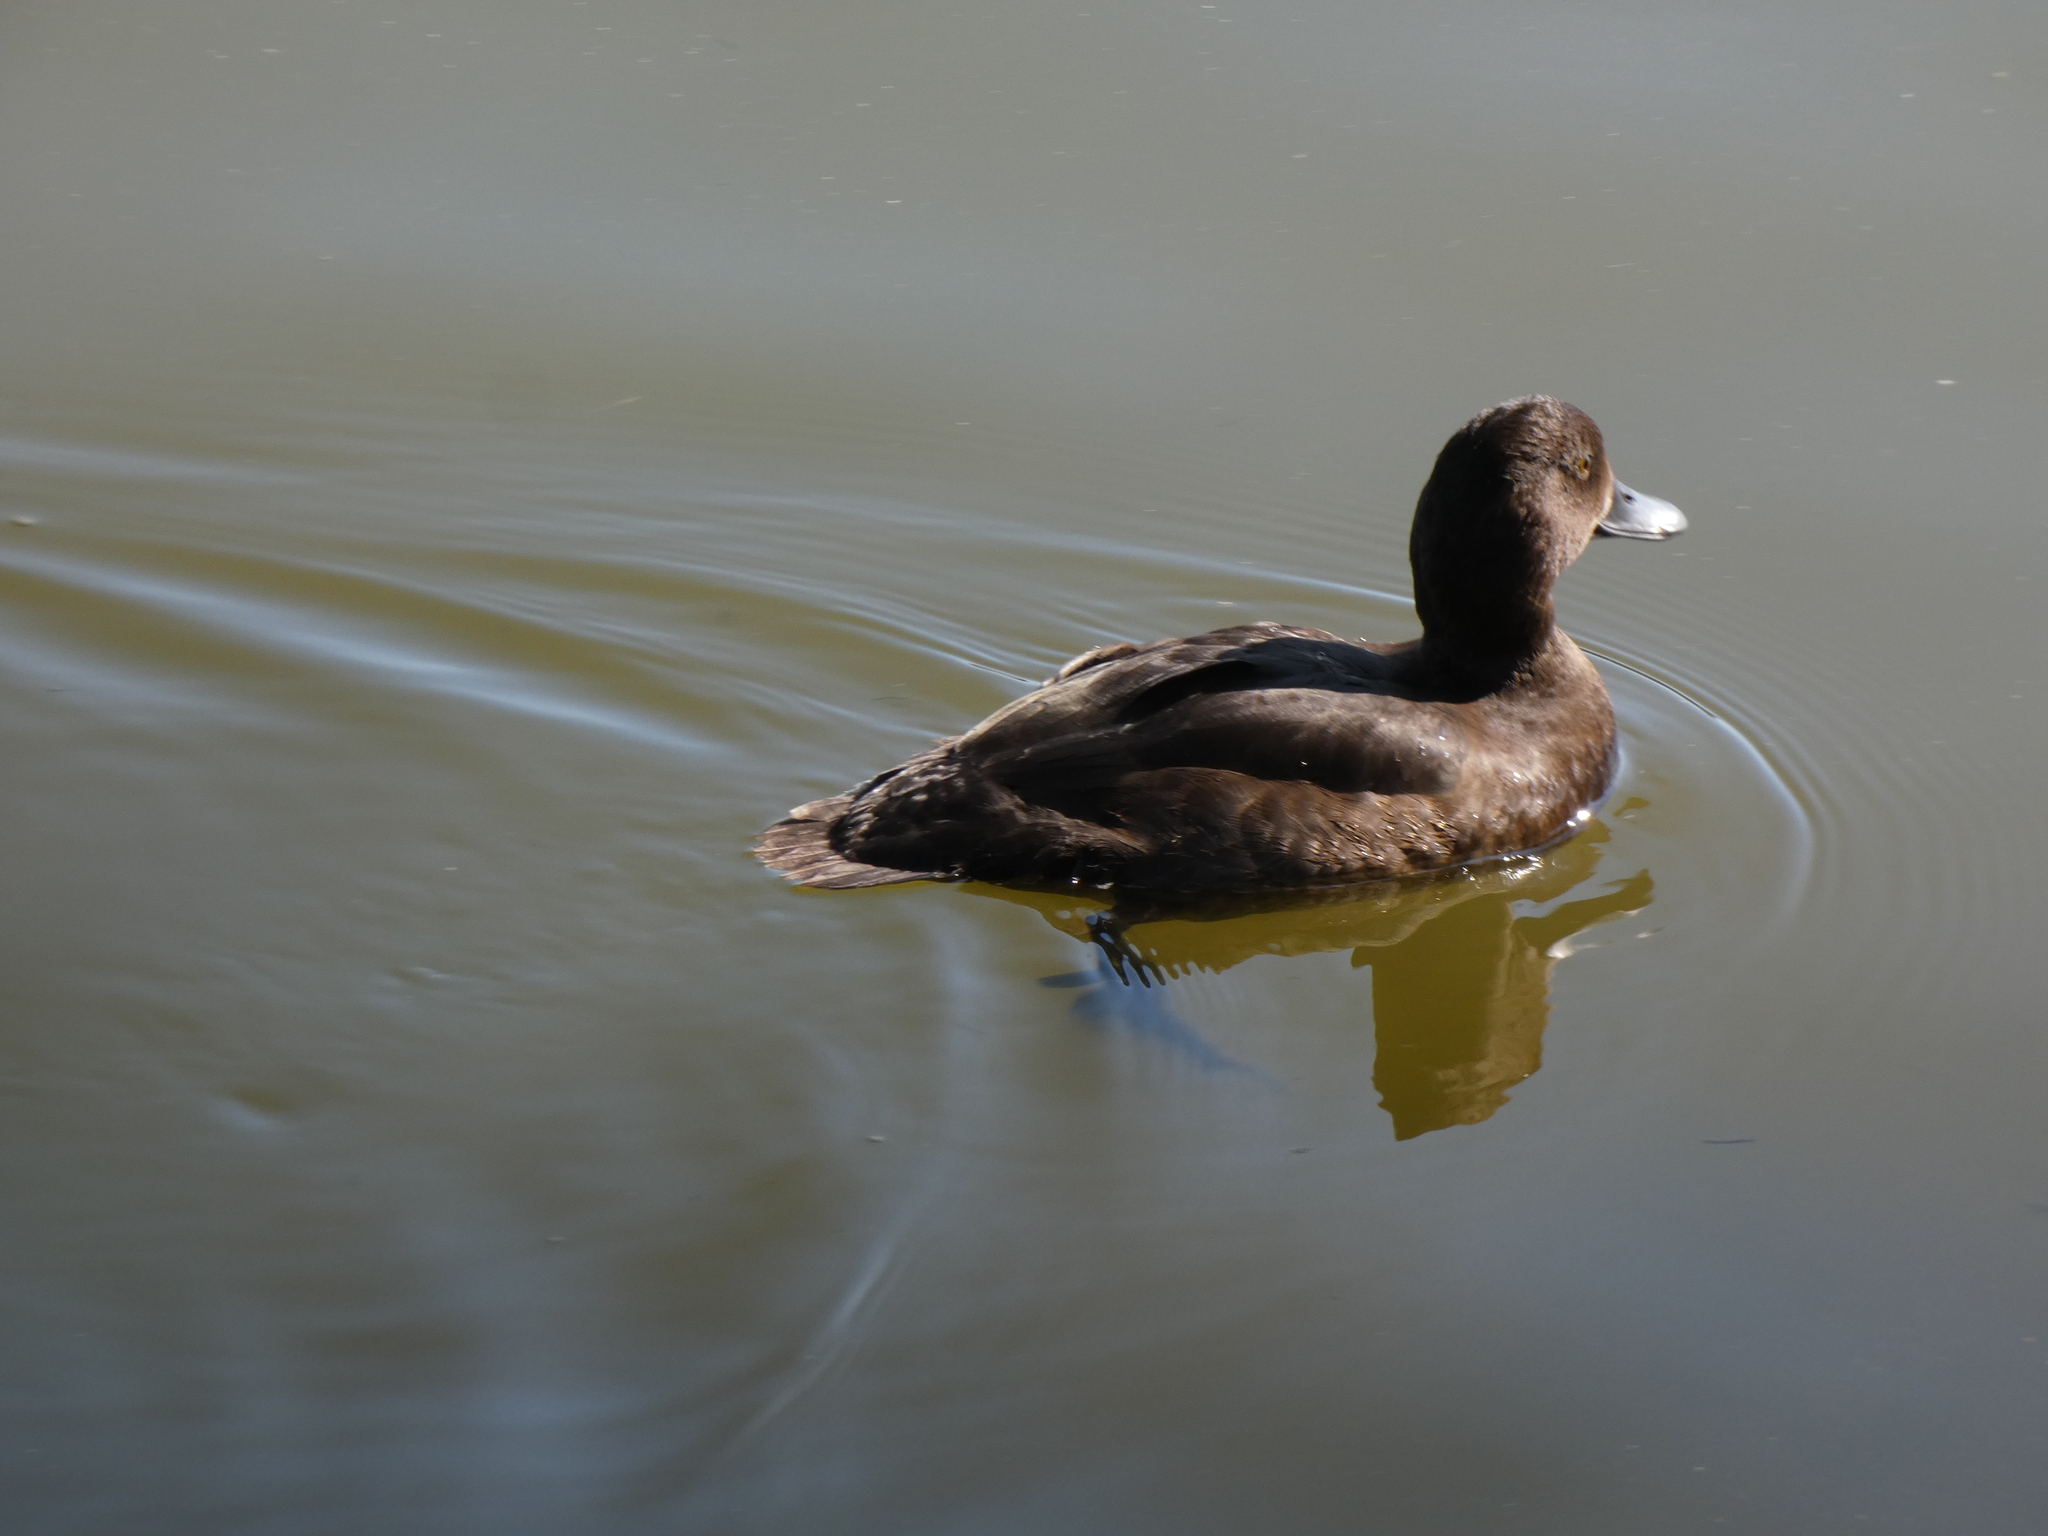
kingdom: Animalia
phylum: Chordata
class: Aves
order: Anseriformes
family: Anatidae
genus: Aythya
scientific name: Aythya fuligula
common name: Tufted duck
